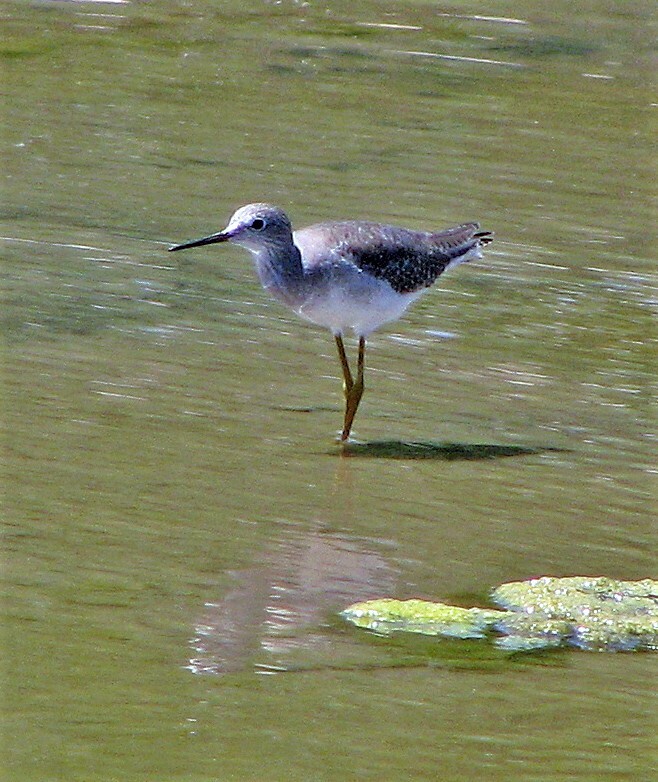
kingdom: Animalia
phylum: Chordata
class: Aves
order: Charadriiformes
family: Scolopacidae
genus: Tringa
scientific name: Tringa flavipes
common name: Lesser yellowlegs
